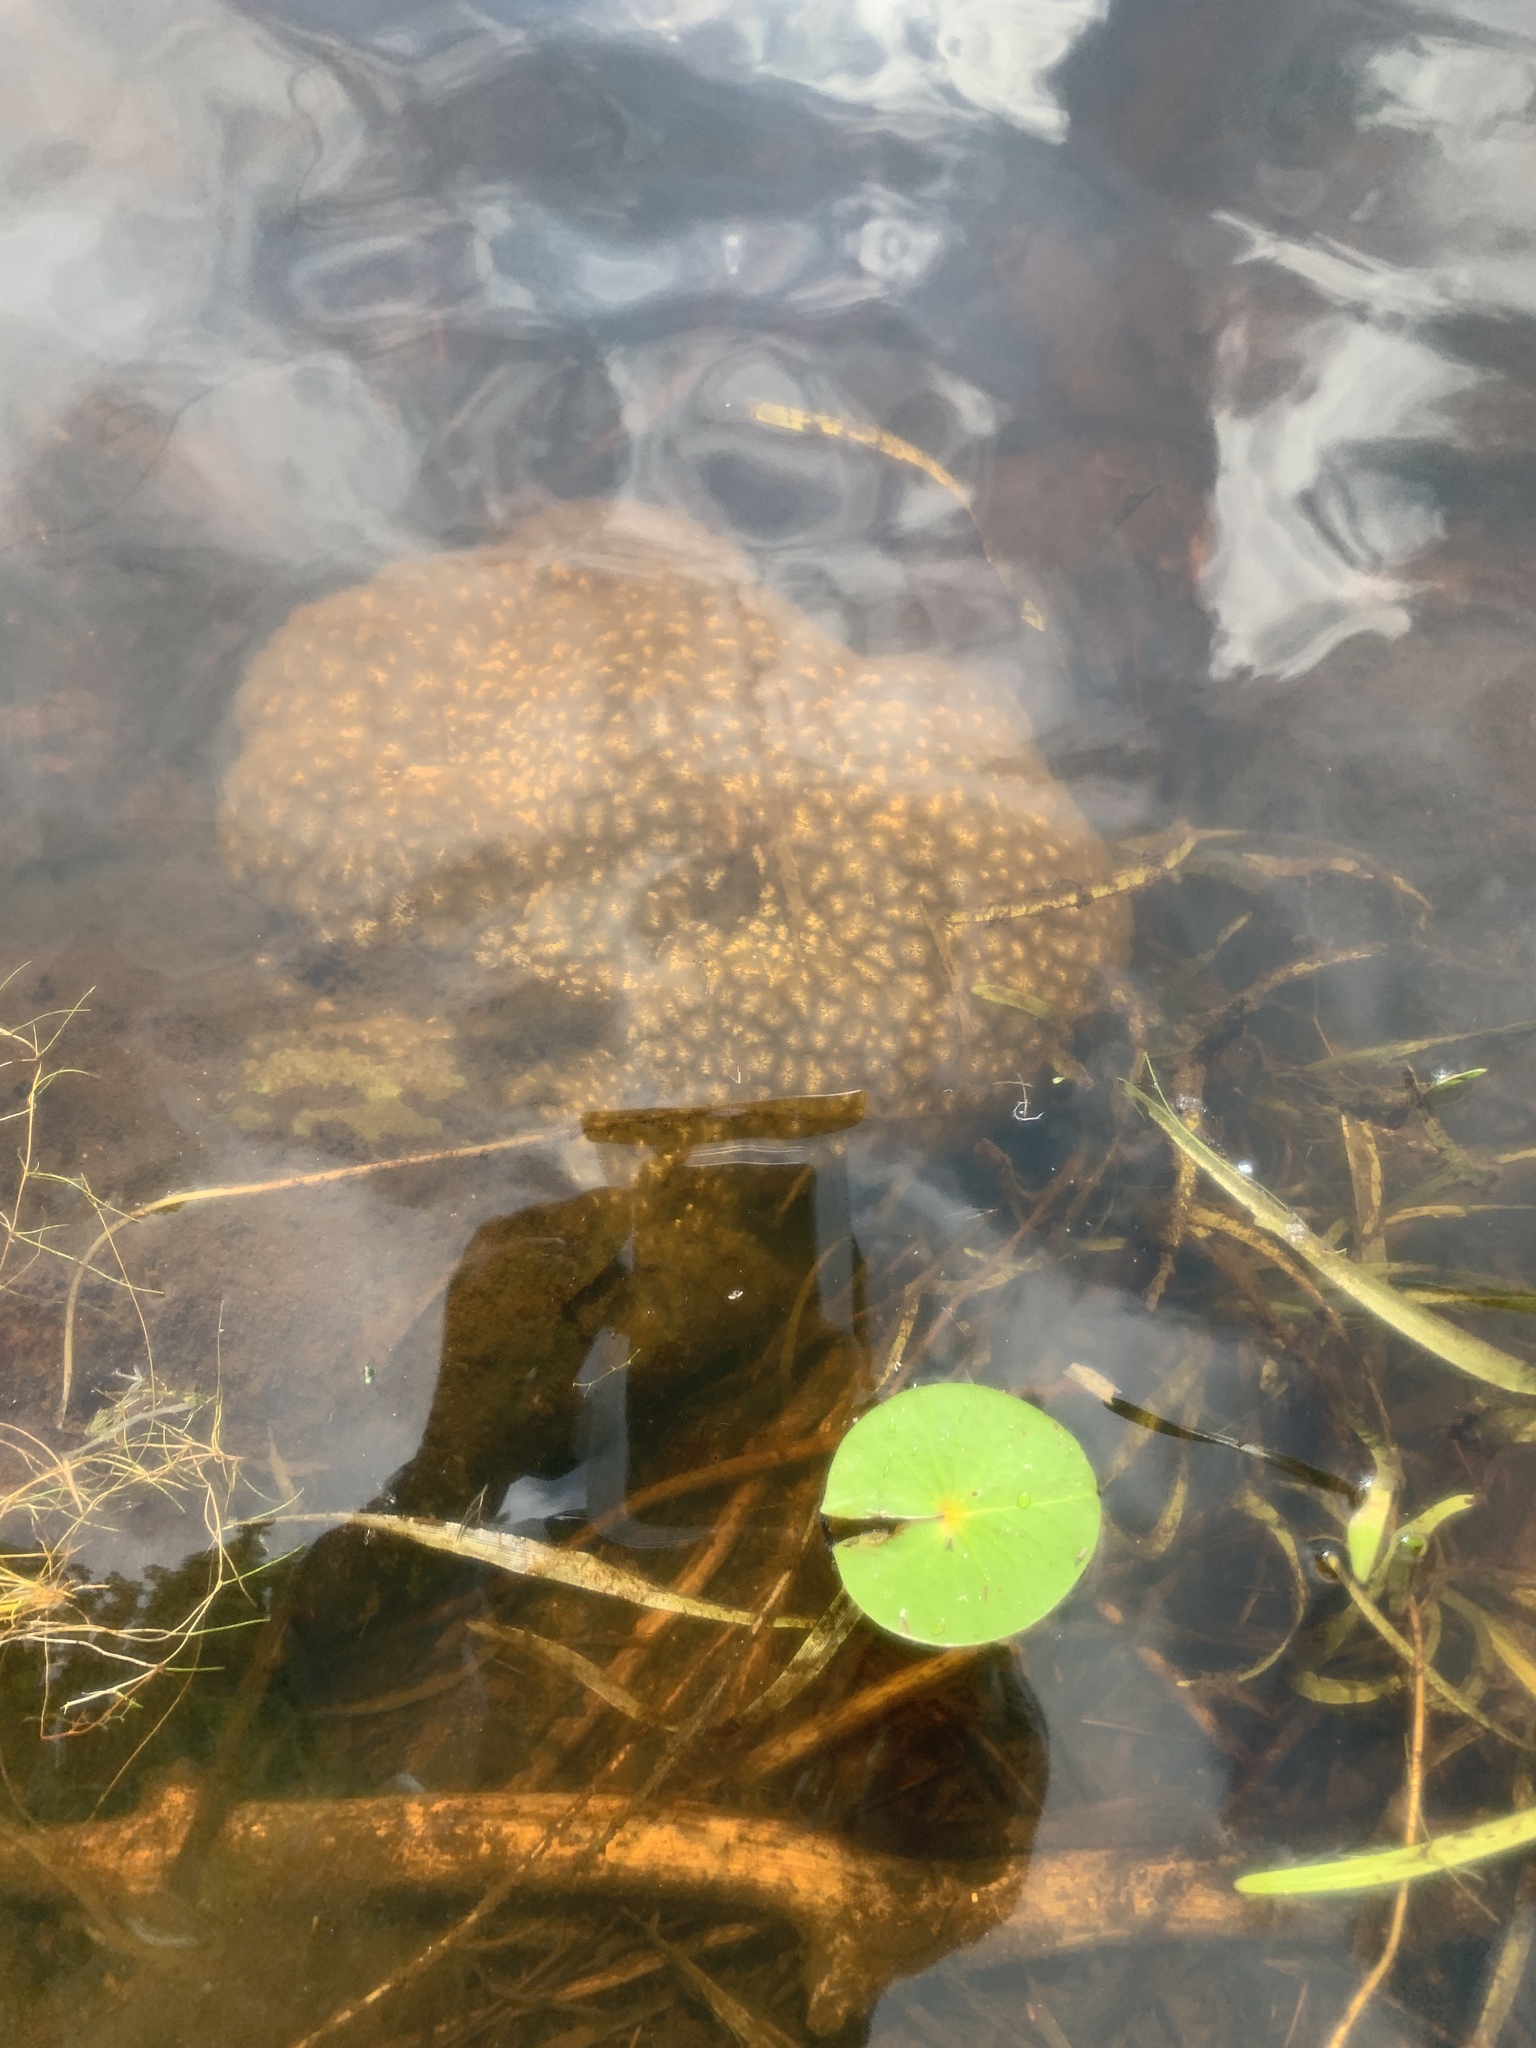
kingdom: Animalia
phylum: Bryozoa
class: Phylactolaemata
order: Plumatellida
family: Pectinatellidae
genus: Pectinatella
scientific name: Pectinatella magnifica
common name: Magnificent bryozoan
